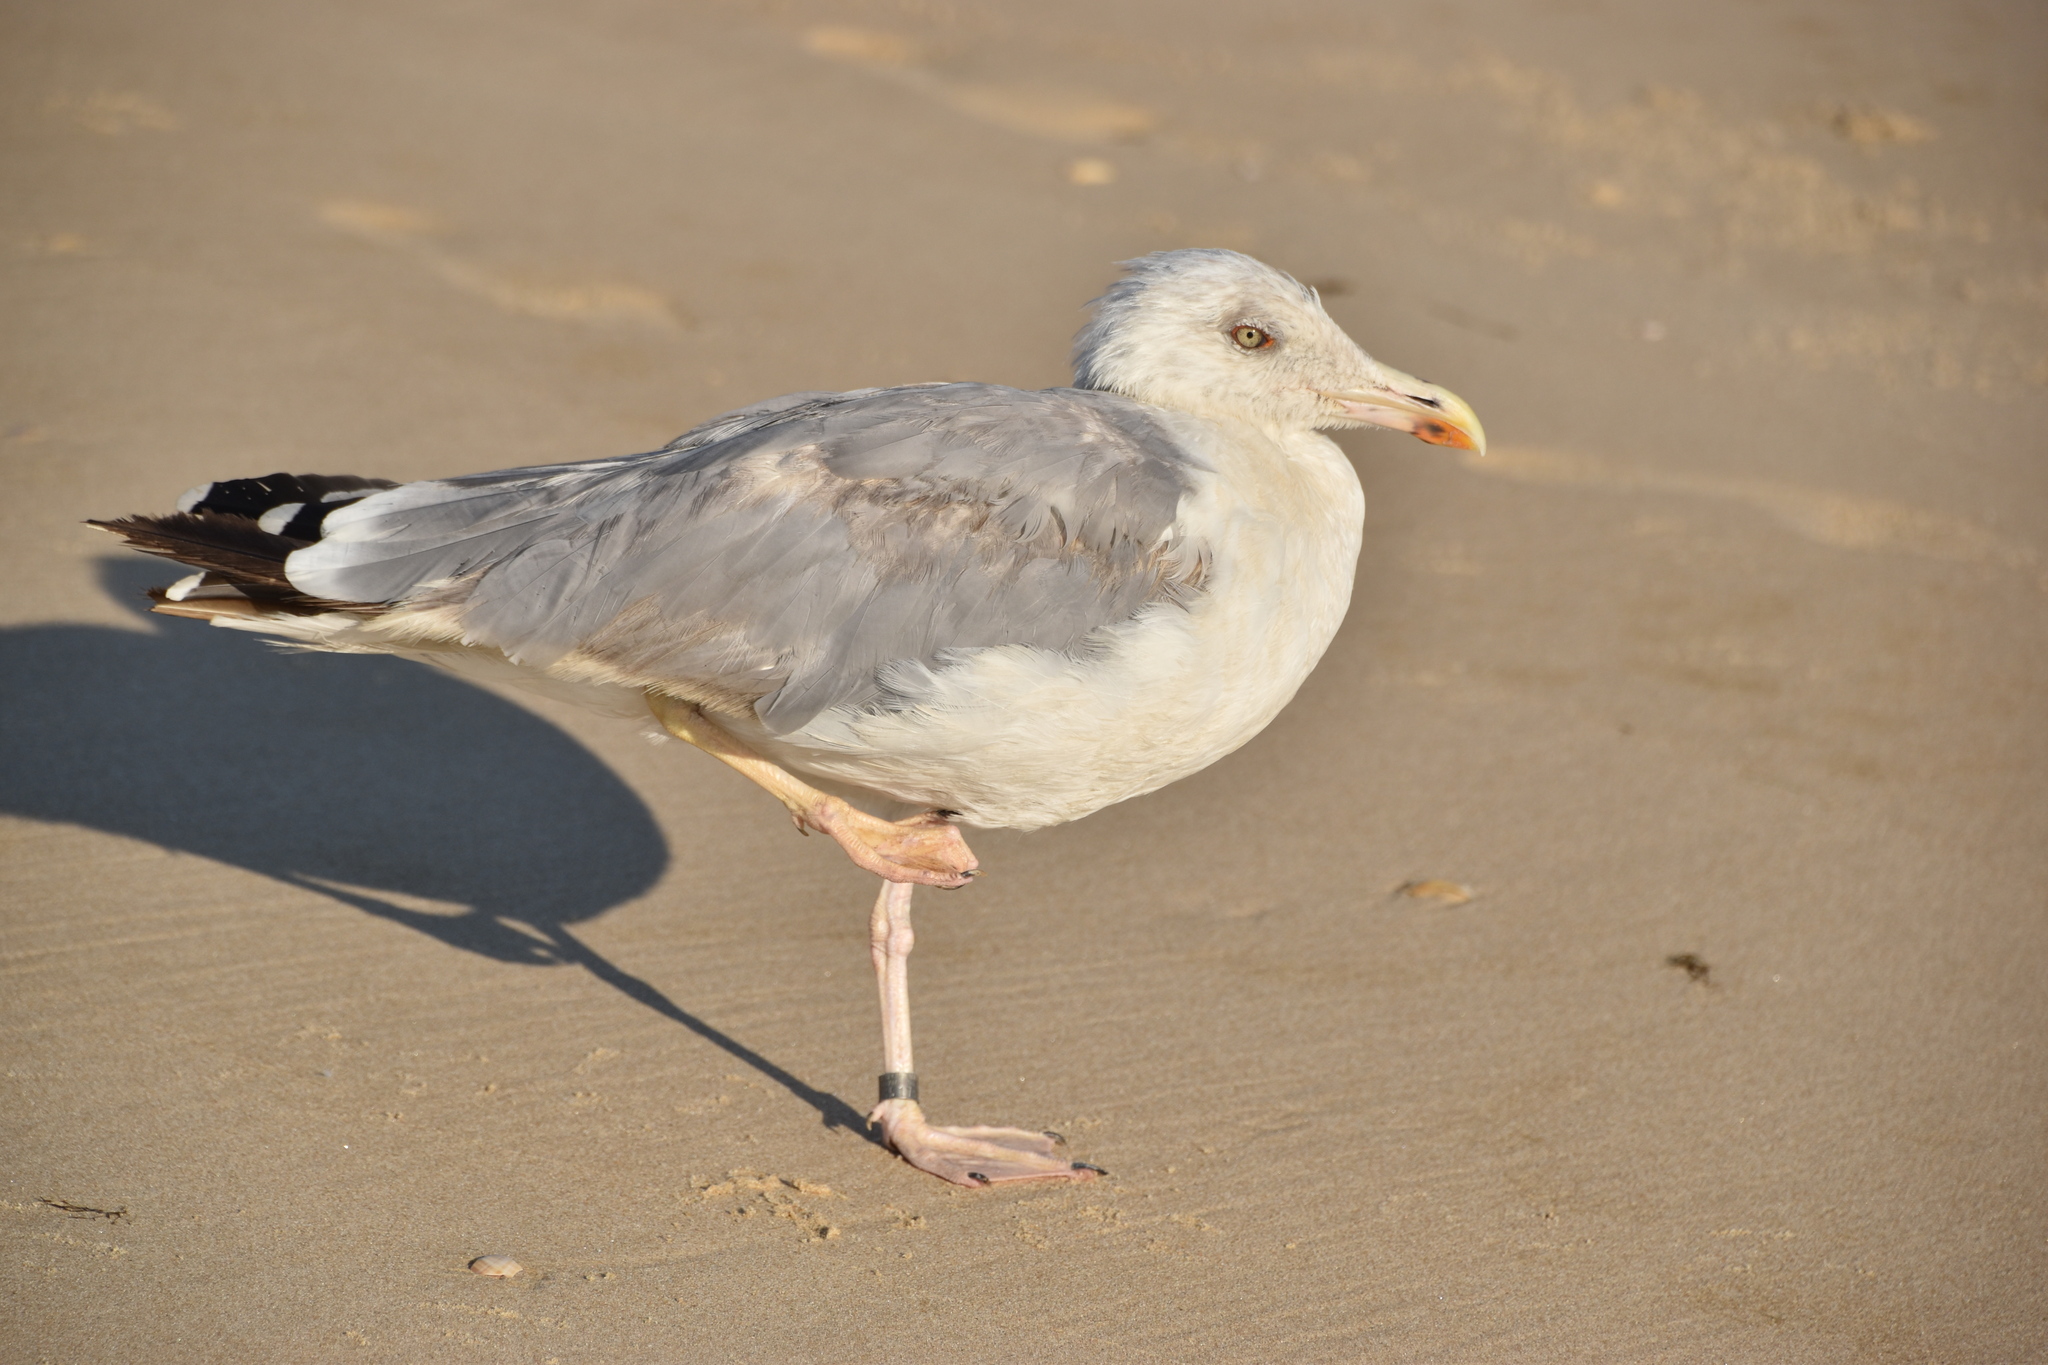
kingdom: Animalia
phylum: Chordata
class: Aves
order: Charadriiformes
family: Laridae
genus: Larus
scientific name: Larus michahellis
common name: Yellow-legged gull
